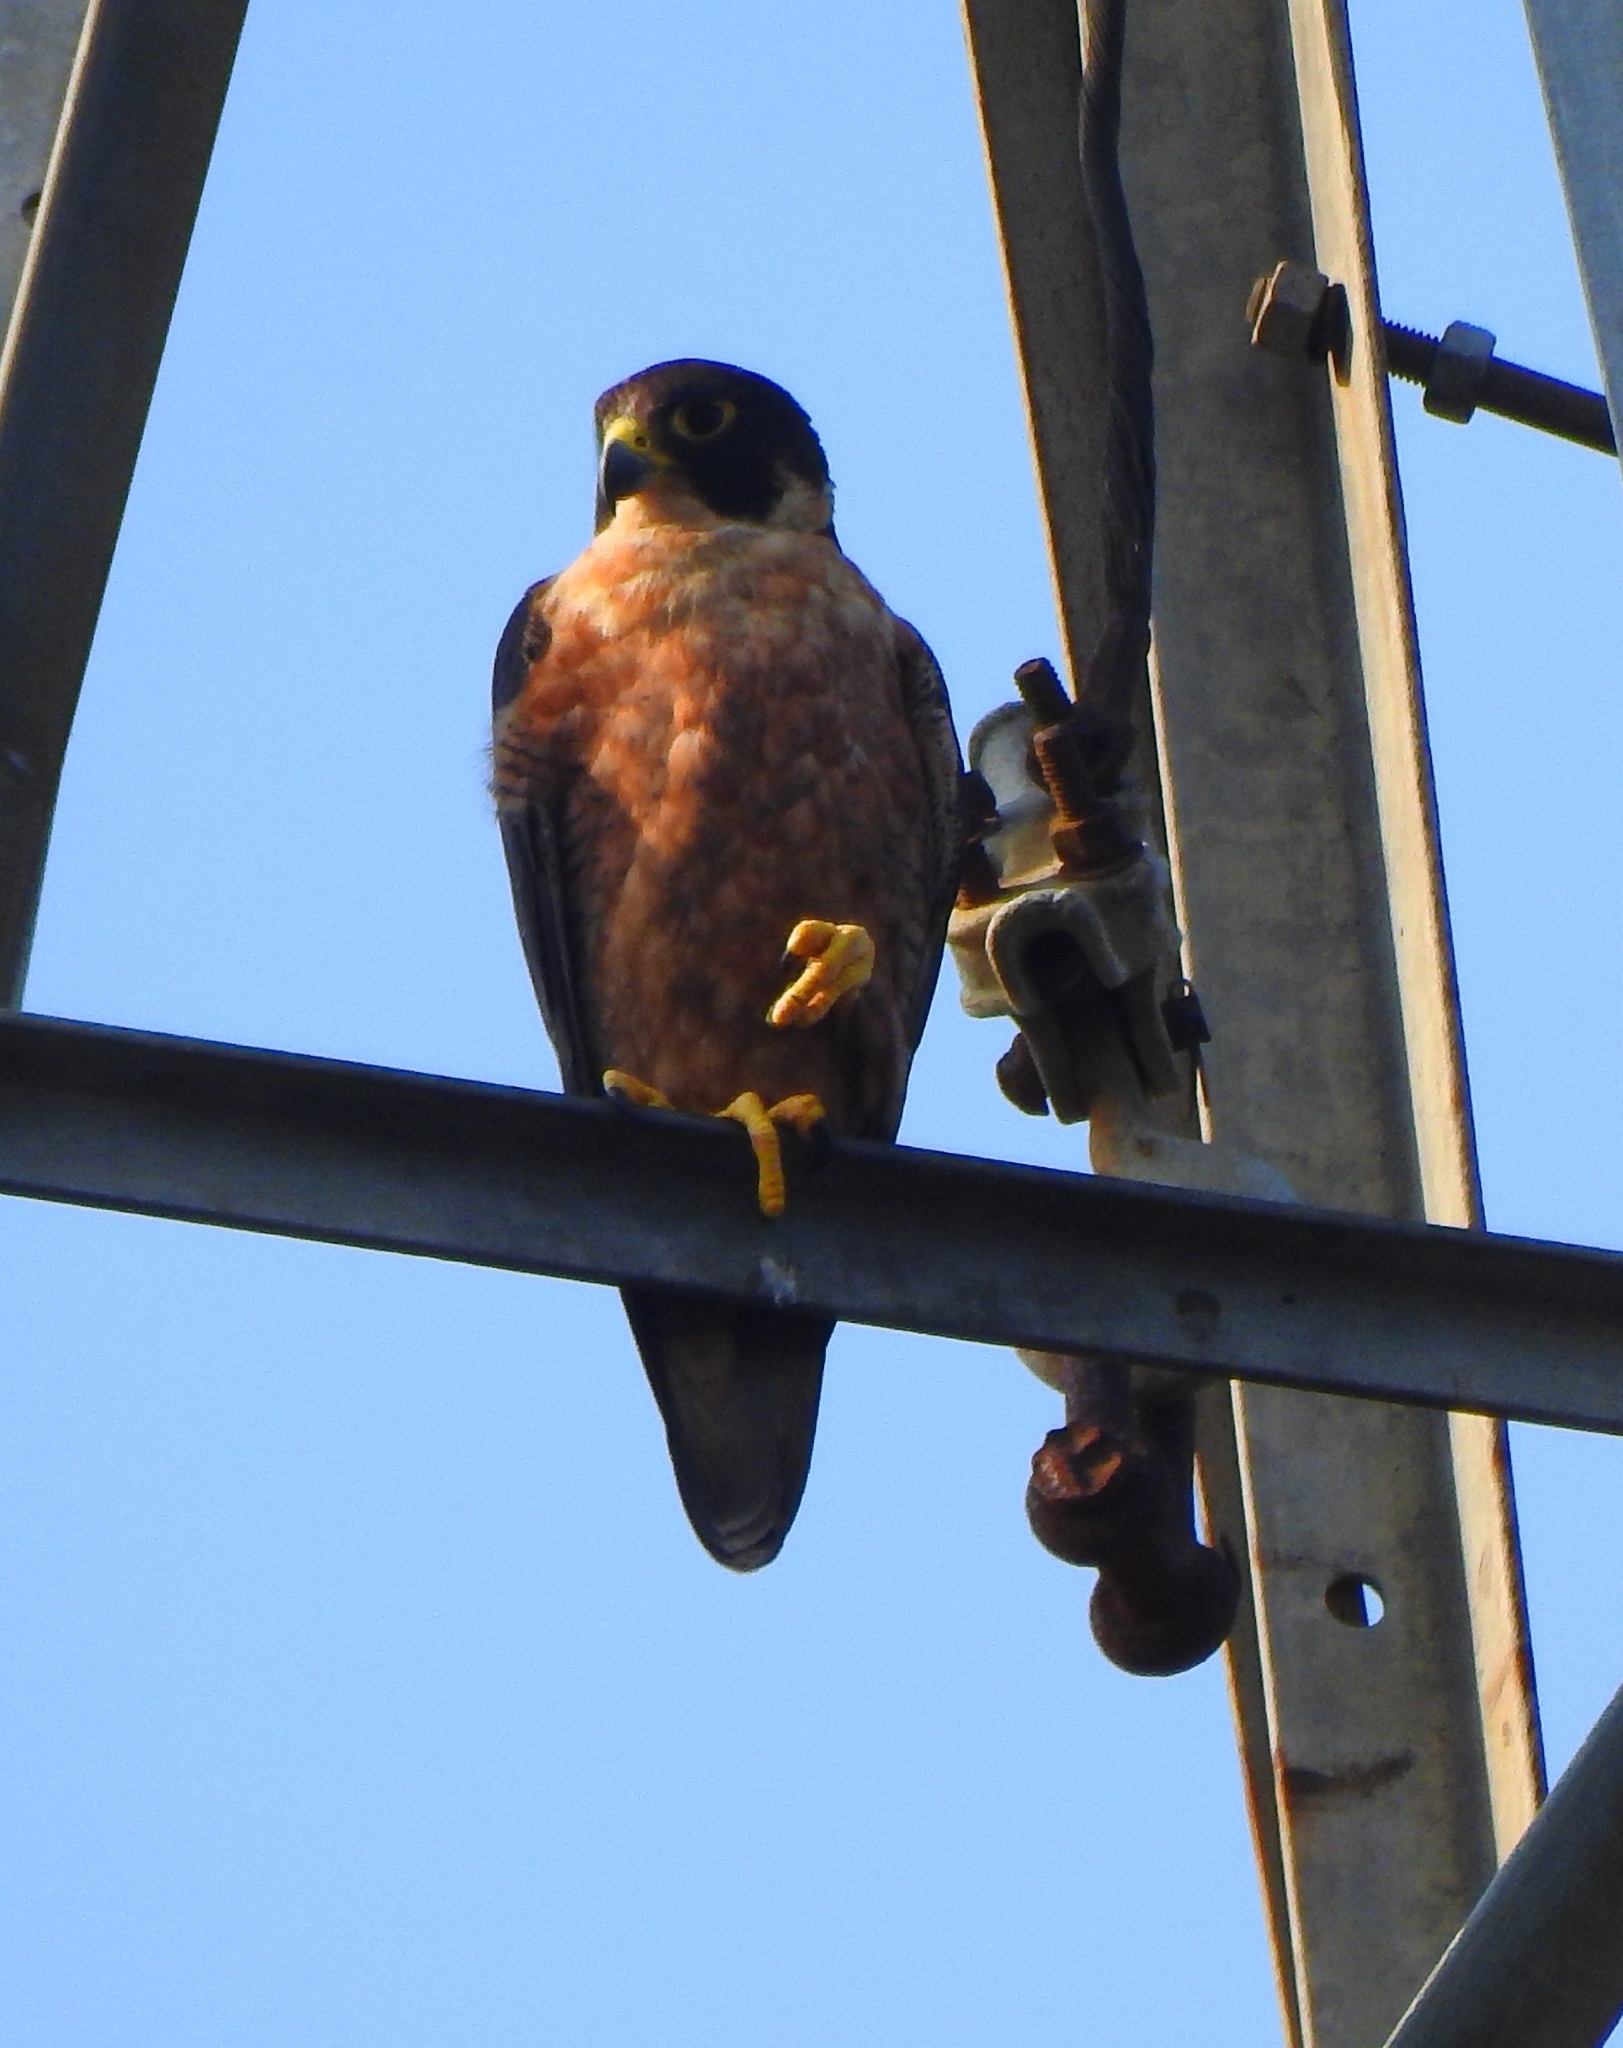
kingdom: Animalia
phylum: Chordata
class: Aves
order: Falconiformes
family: Falconidae
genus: Falco
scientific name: Falco peregrinus
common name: Peregrine falcon
